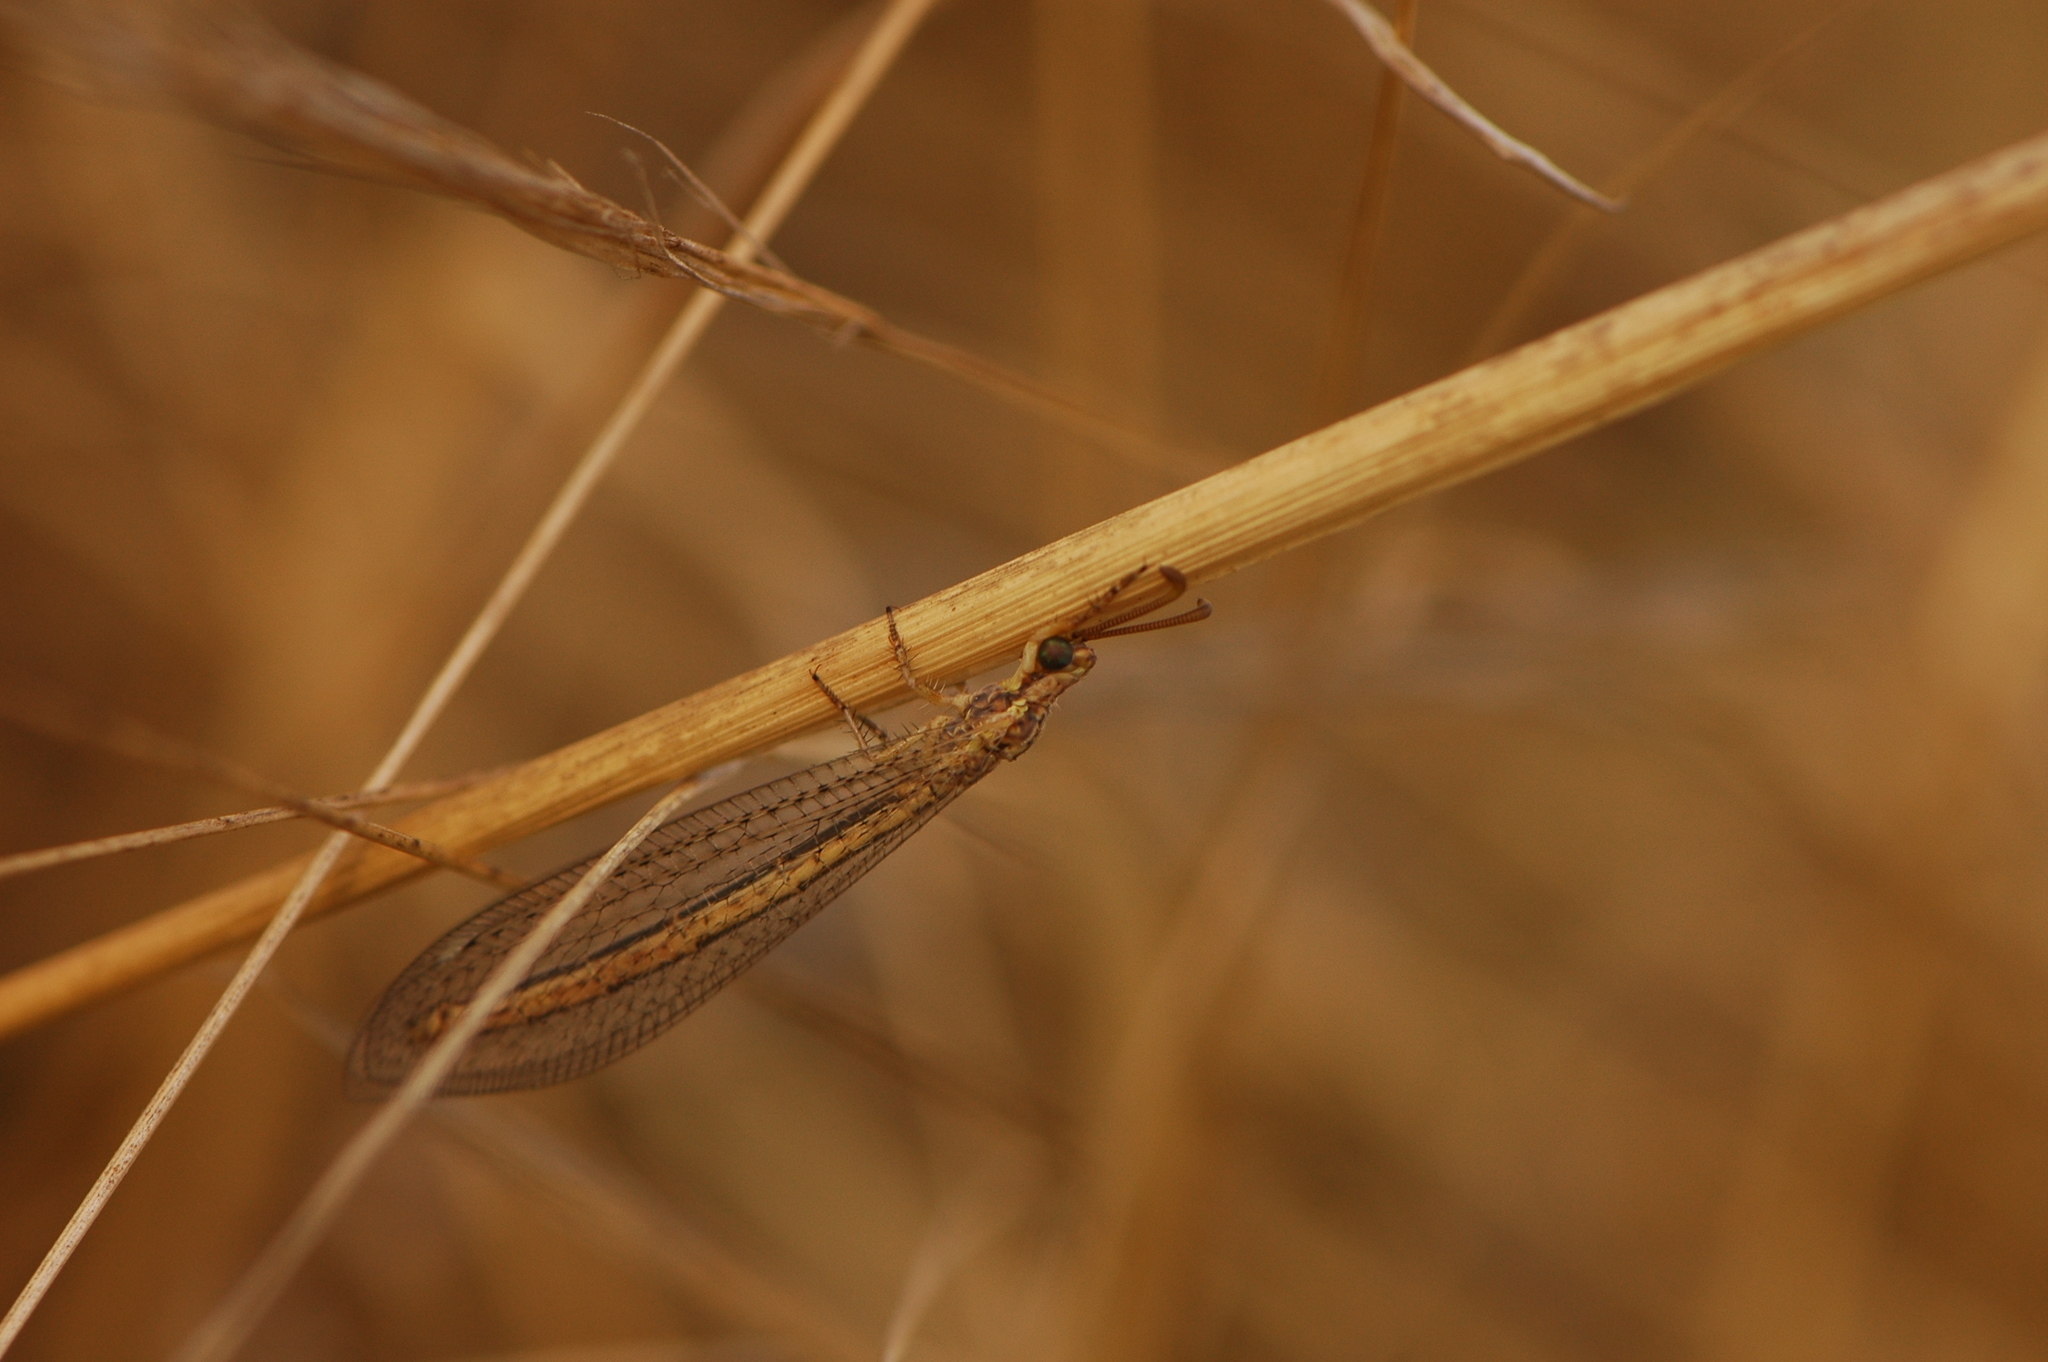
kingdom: Animalia
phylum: Arthropoda
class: Insecta
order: Neuroptera
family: Myrmeleontidae
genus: Macronemurus
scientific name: Macronemurus appendiculatus
